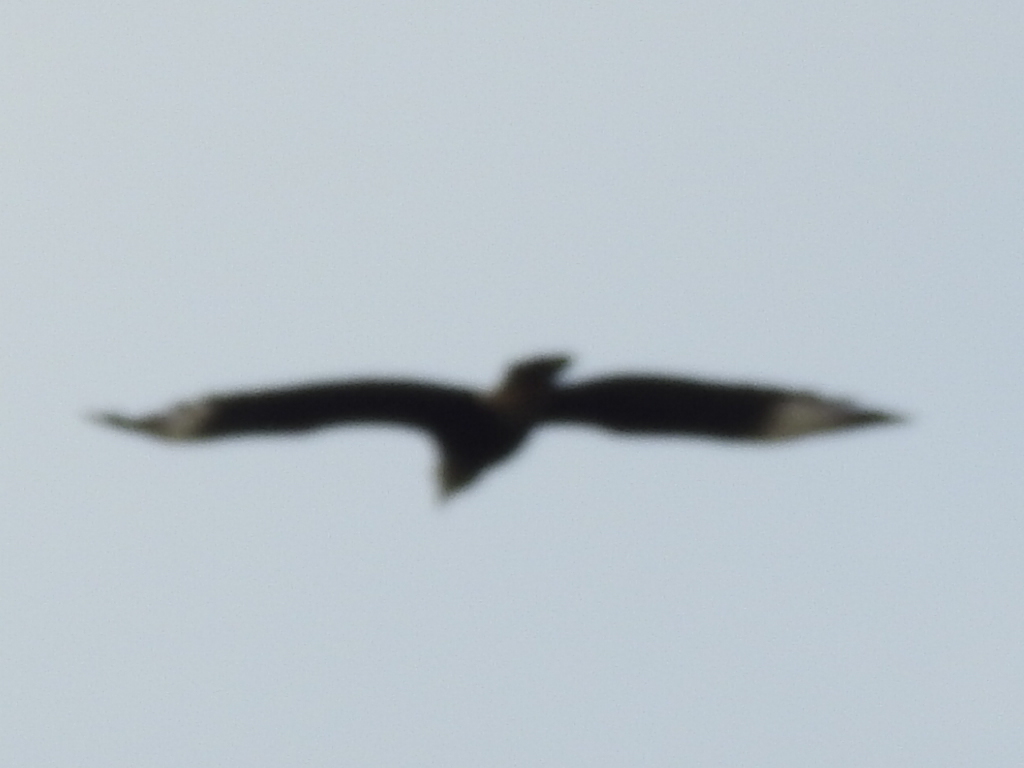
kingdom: Animalia
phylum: Chordata
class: Aves
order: Falconiformes
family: Falconidae
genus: Caracara
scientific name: Caracara plancus
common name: Southern caracara
